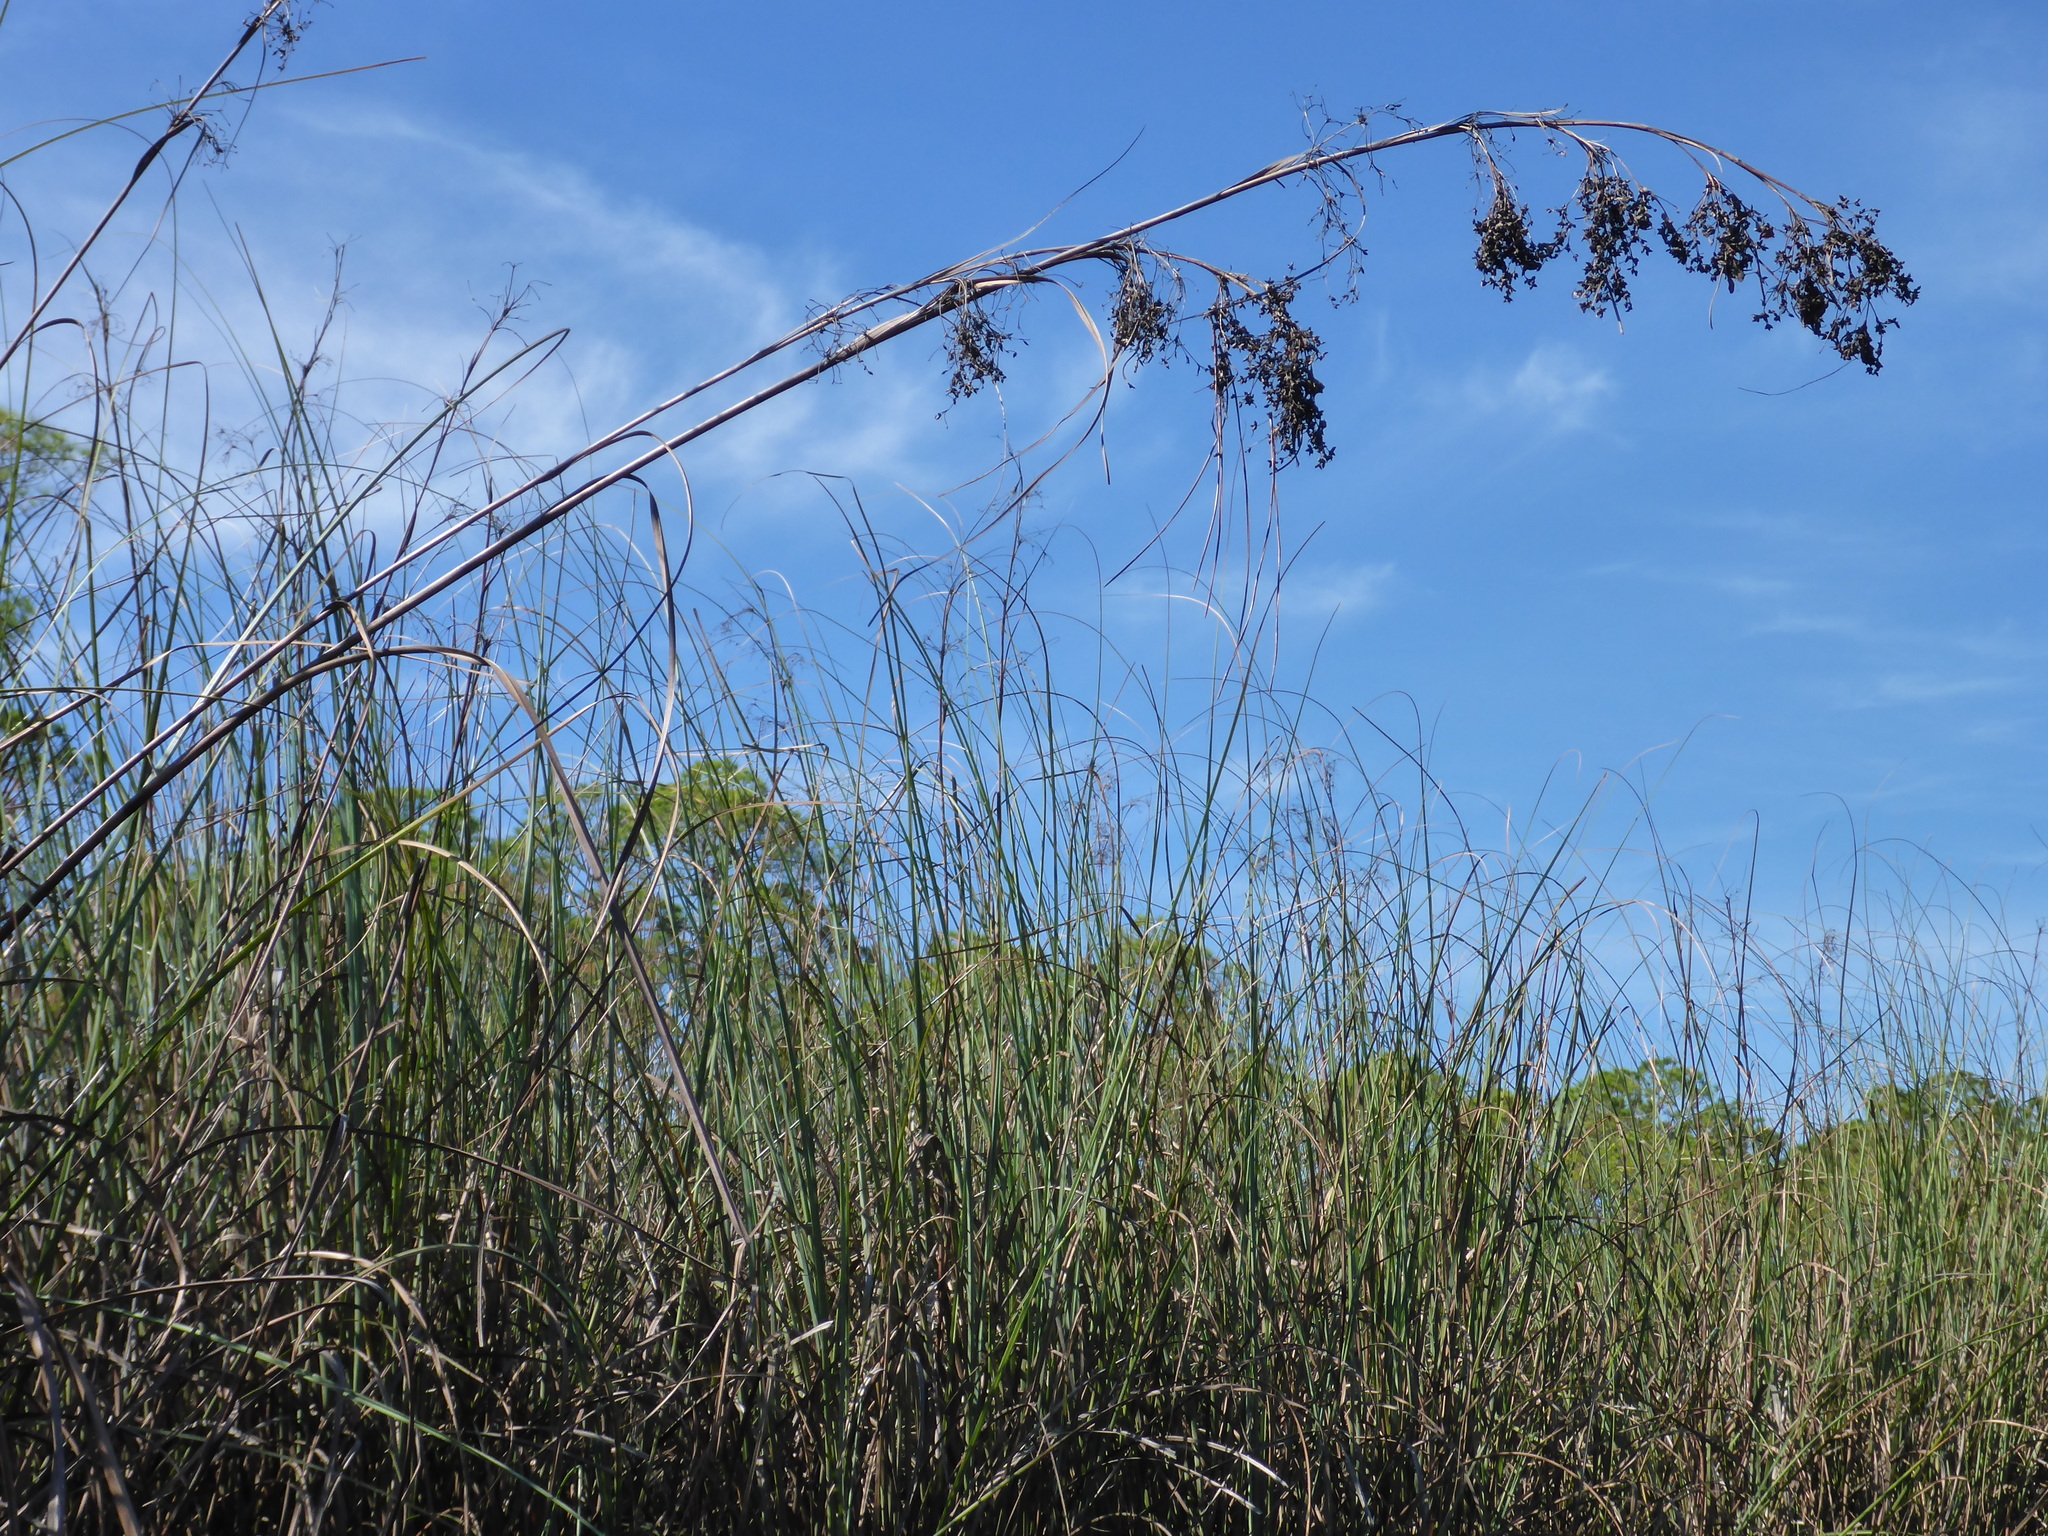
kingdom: Plantae
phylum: Tracheophyta
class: Liliopsida
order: Poales
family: Cyperaceae
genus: Cladium
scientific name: Cladium mariscus
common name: Great fen-sedge
